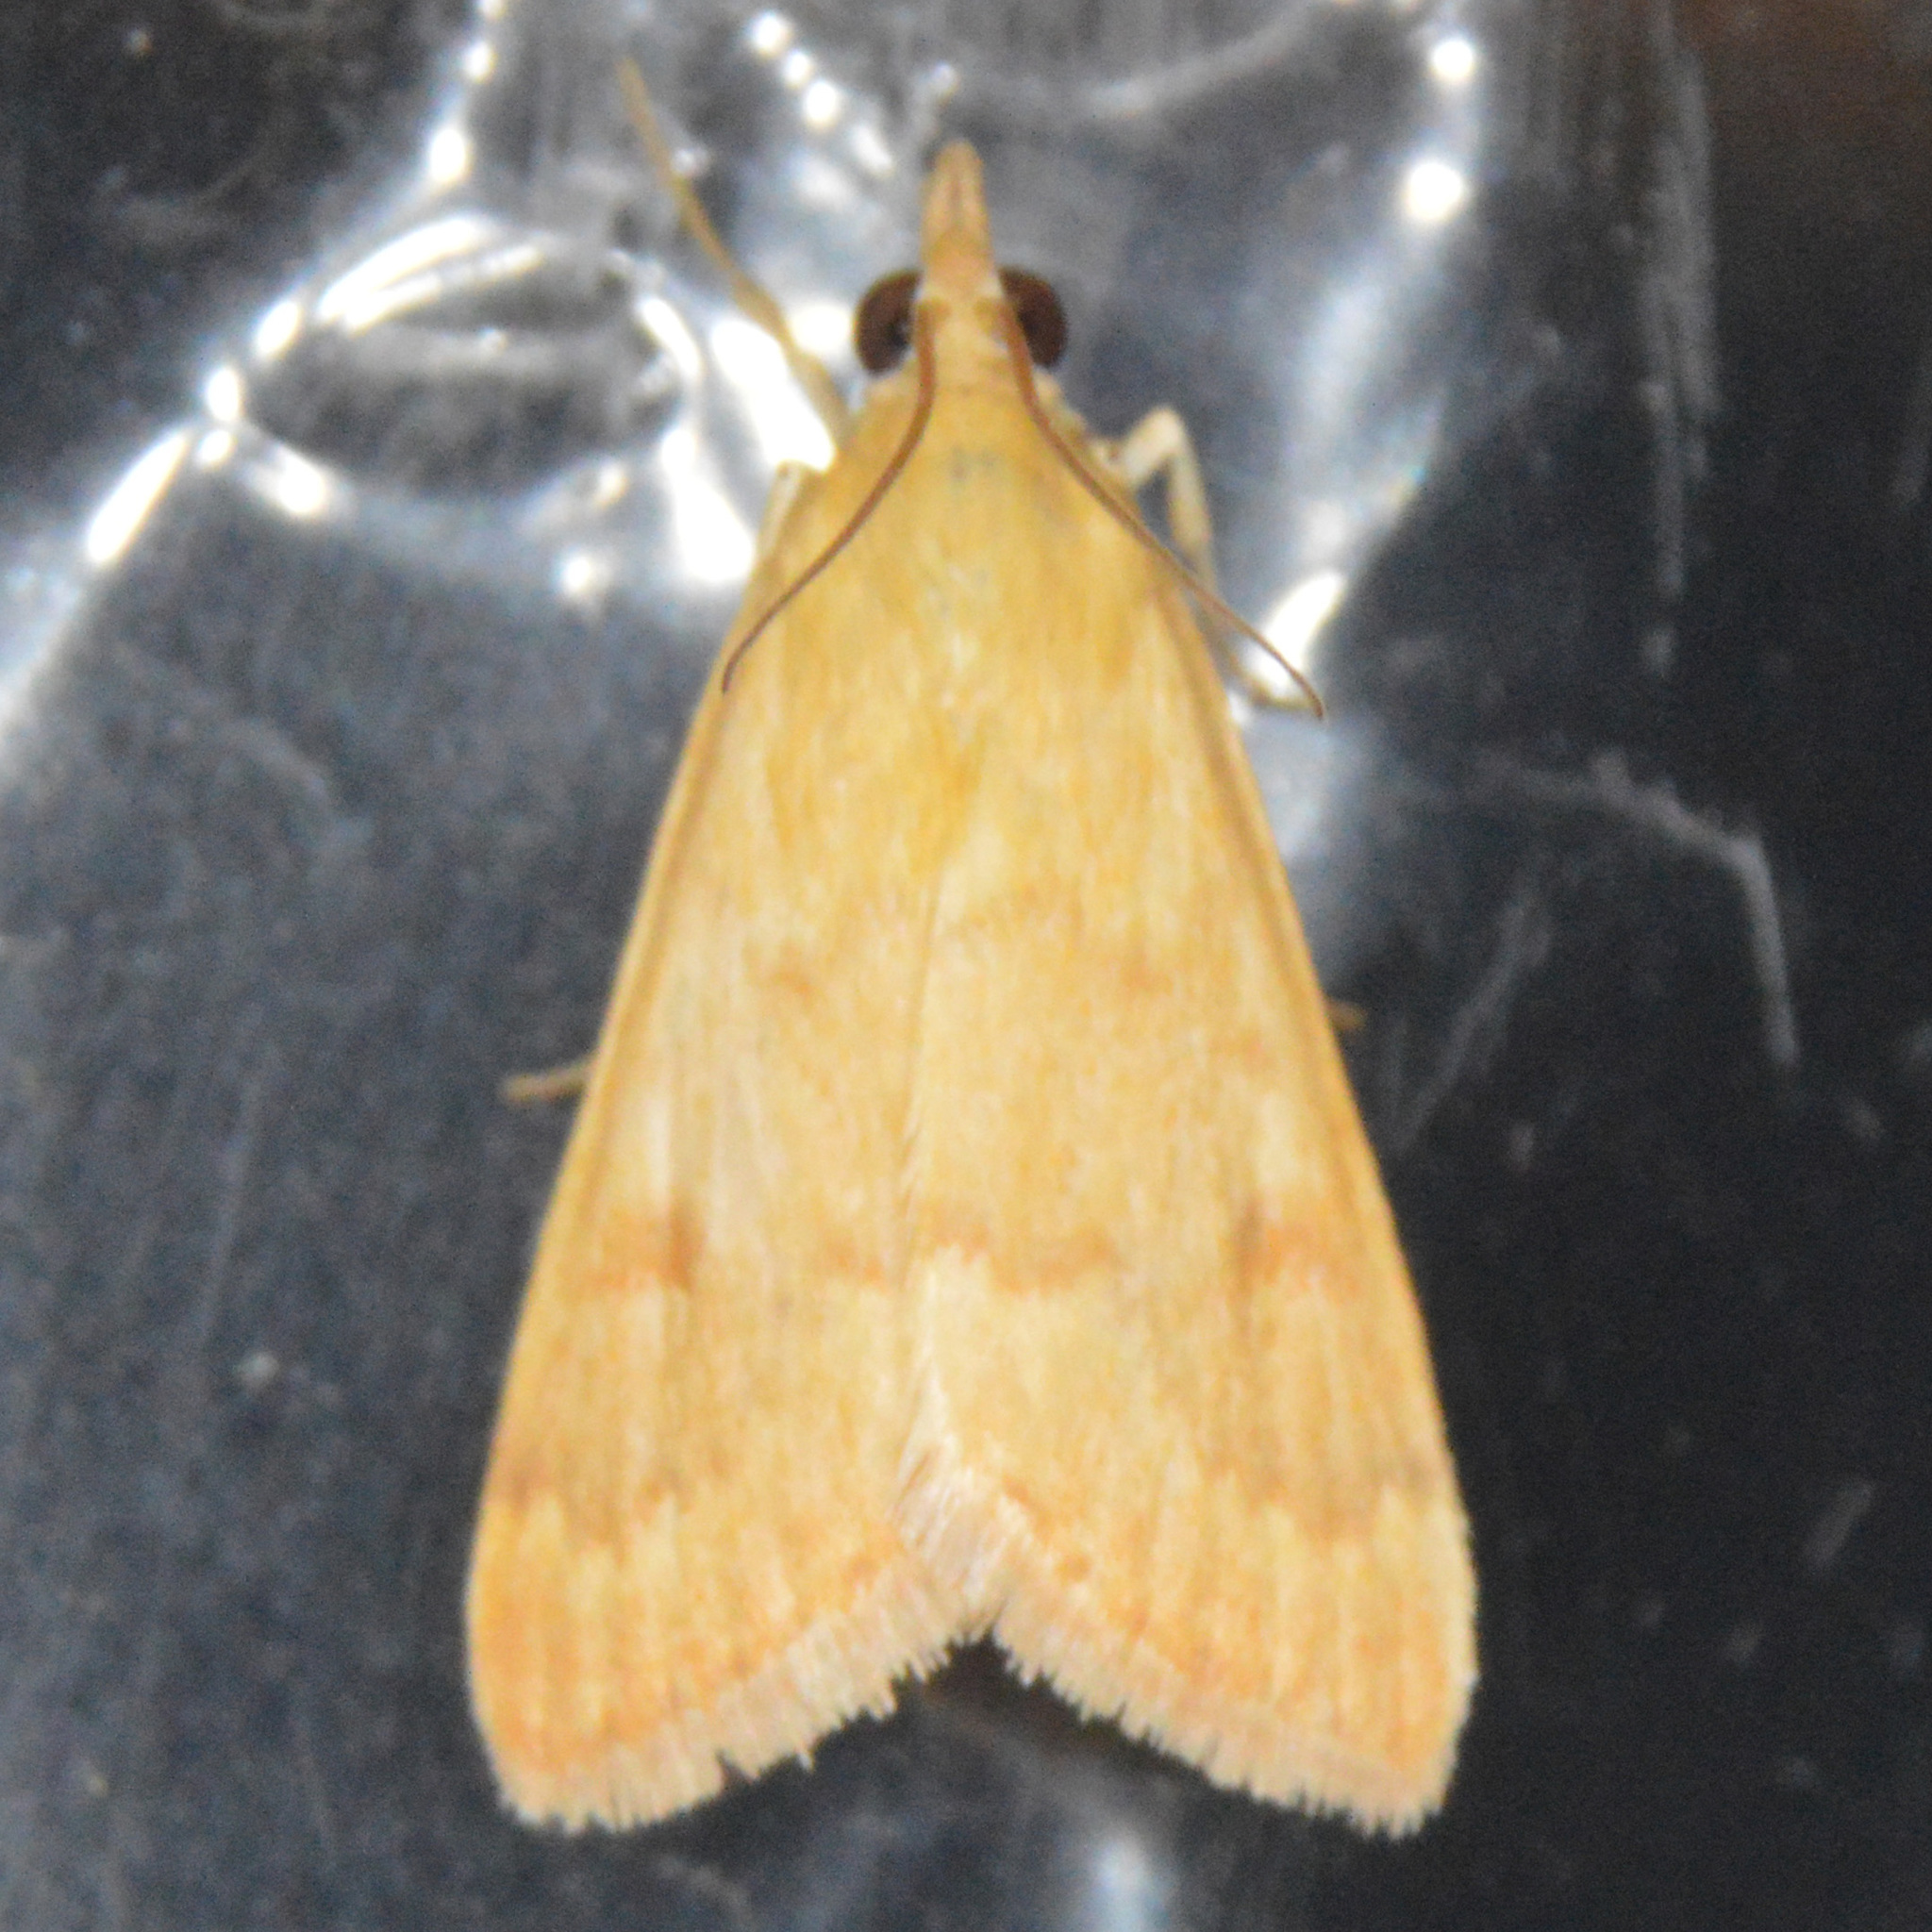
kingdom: Animalia
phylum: Arthropoda
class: Insecta
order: Lepidoptera
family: Crambidae
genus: Achyra
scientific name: Achyra rantalis
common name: Garden webworm
